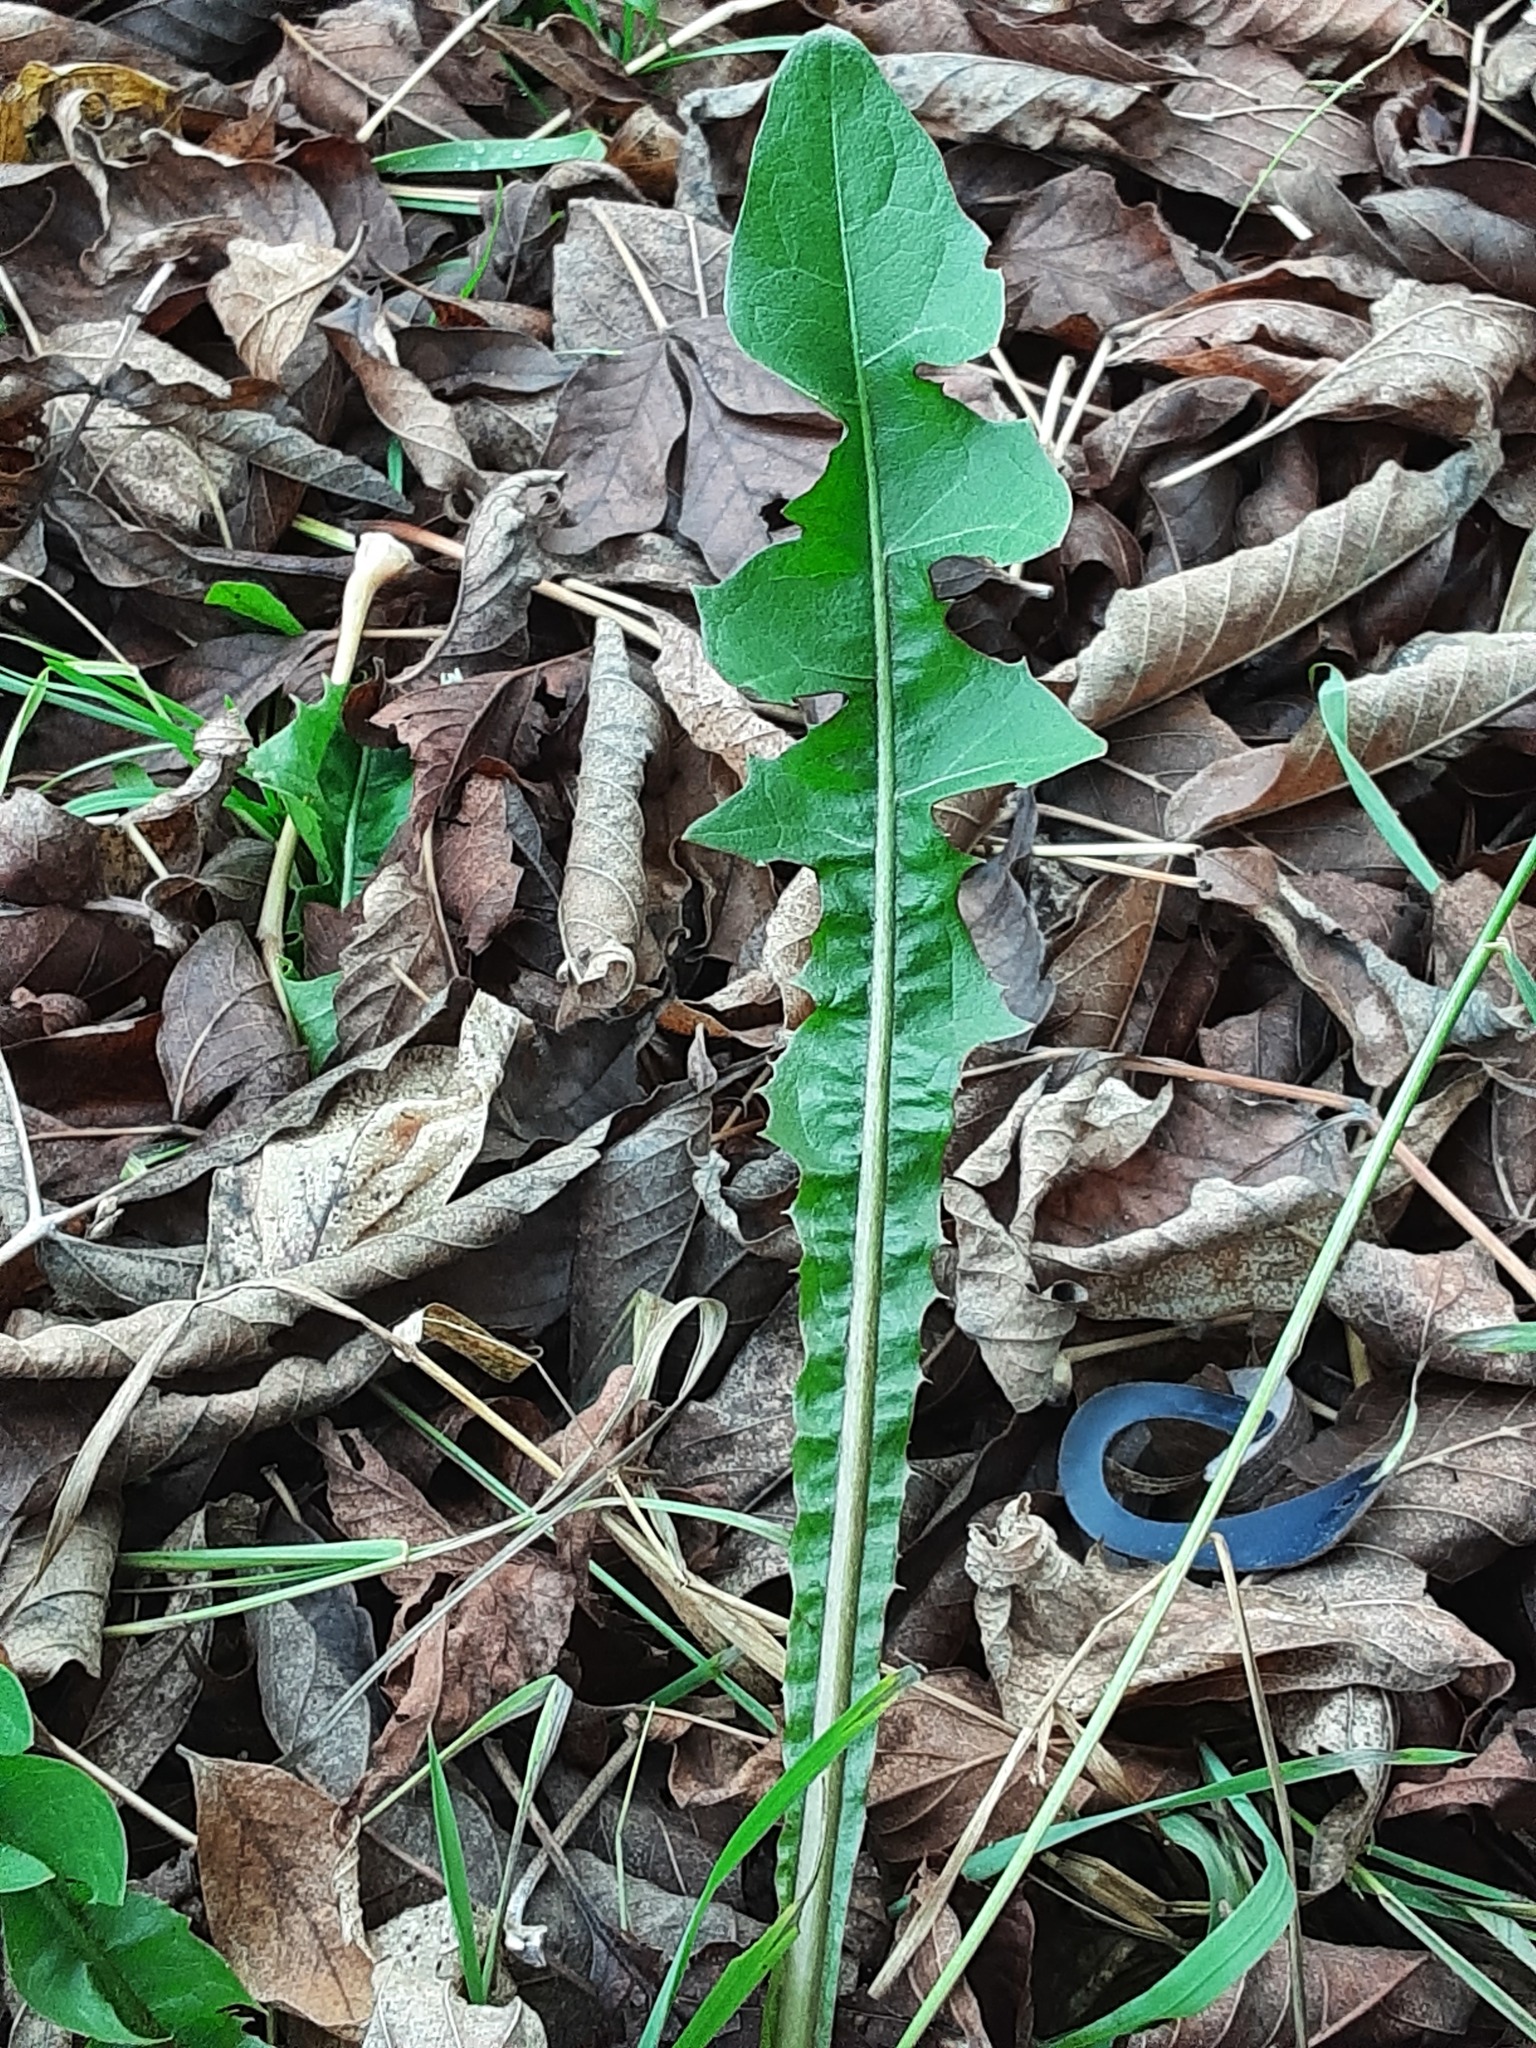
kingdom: Plantae
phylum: Tracheophyta
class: Magnoliopsida
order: Asterales
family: Asteraceae
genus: Taraxacum
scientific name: Taraxacum officinale
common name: Common dandelion
